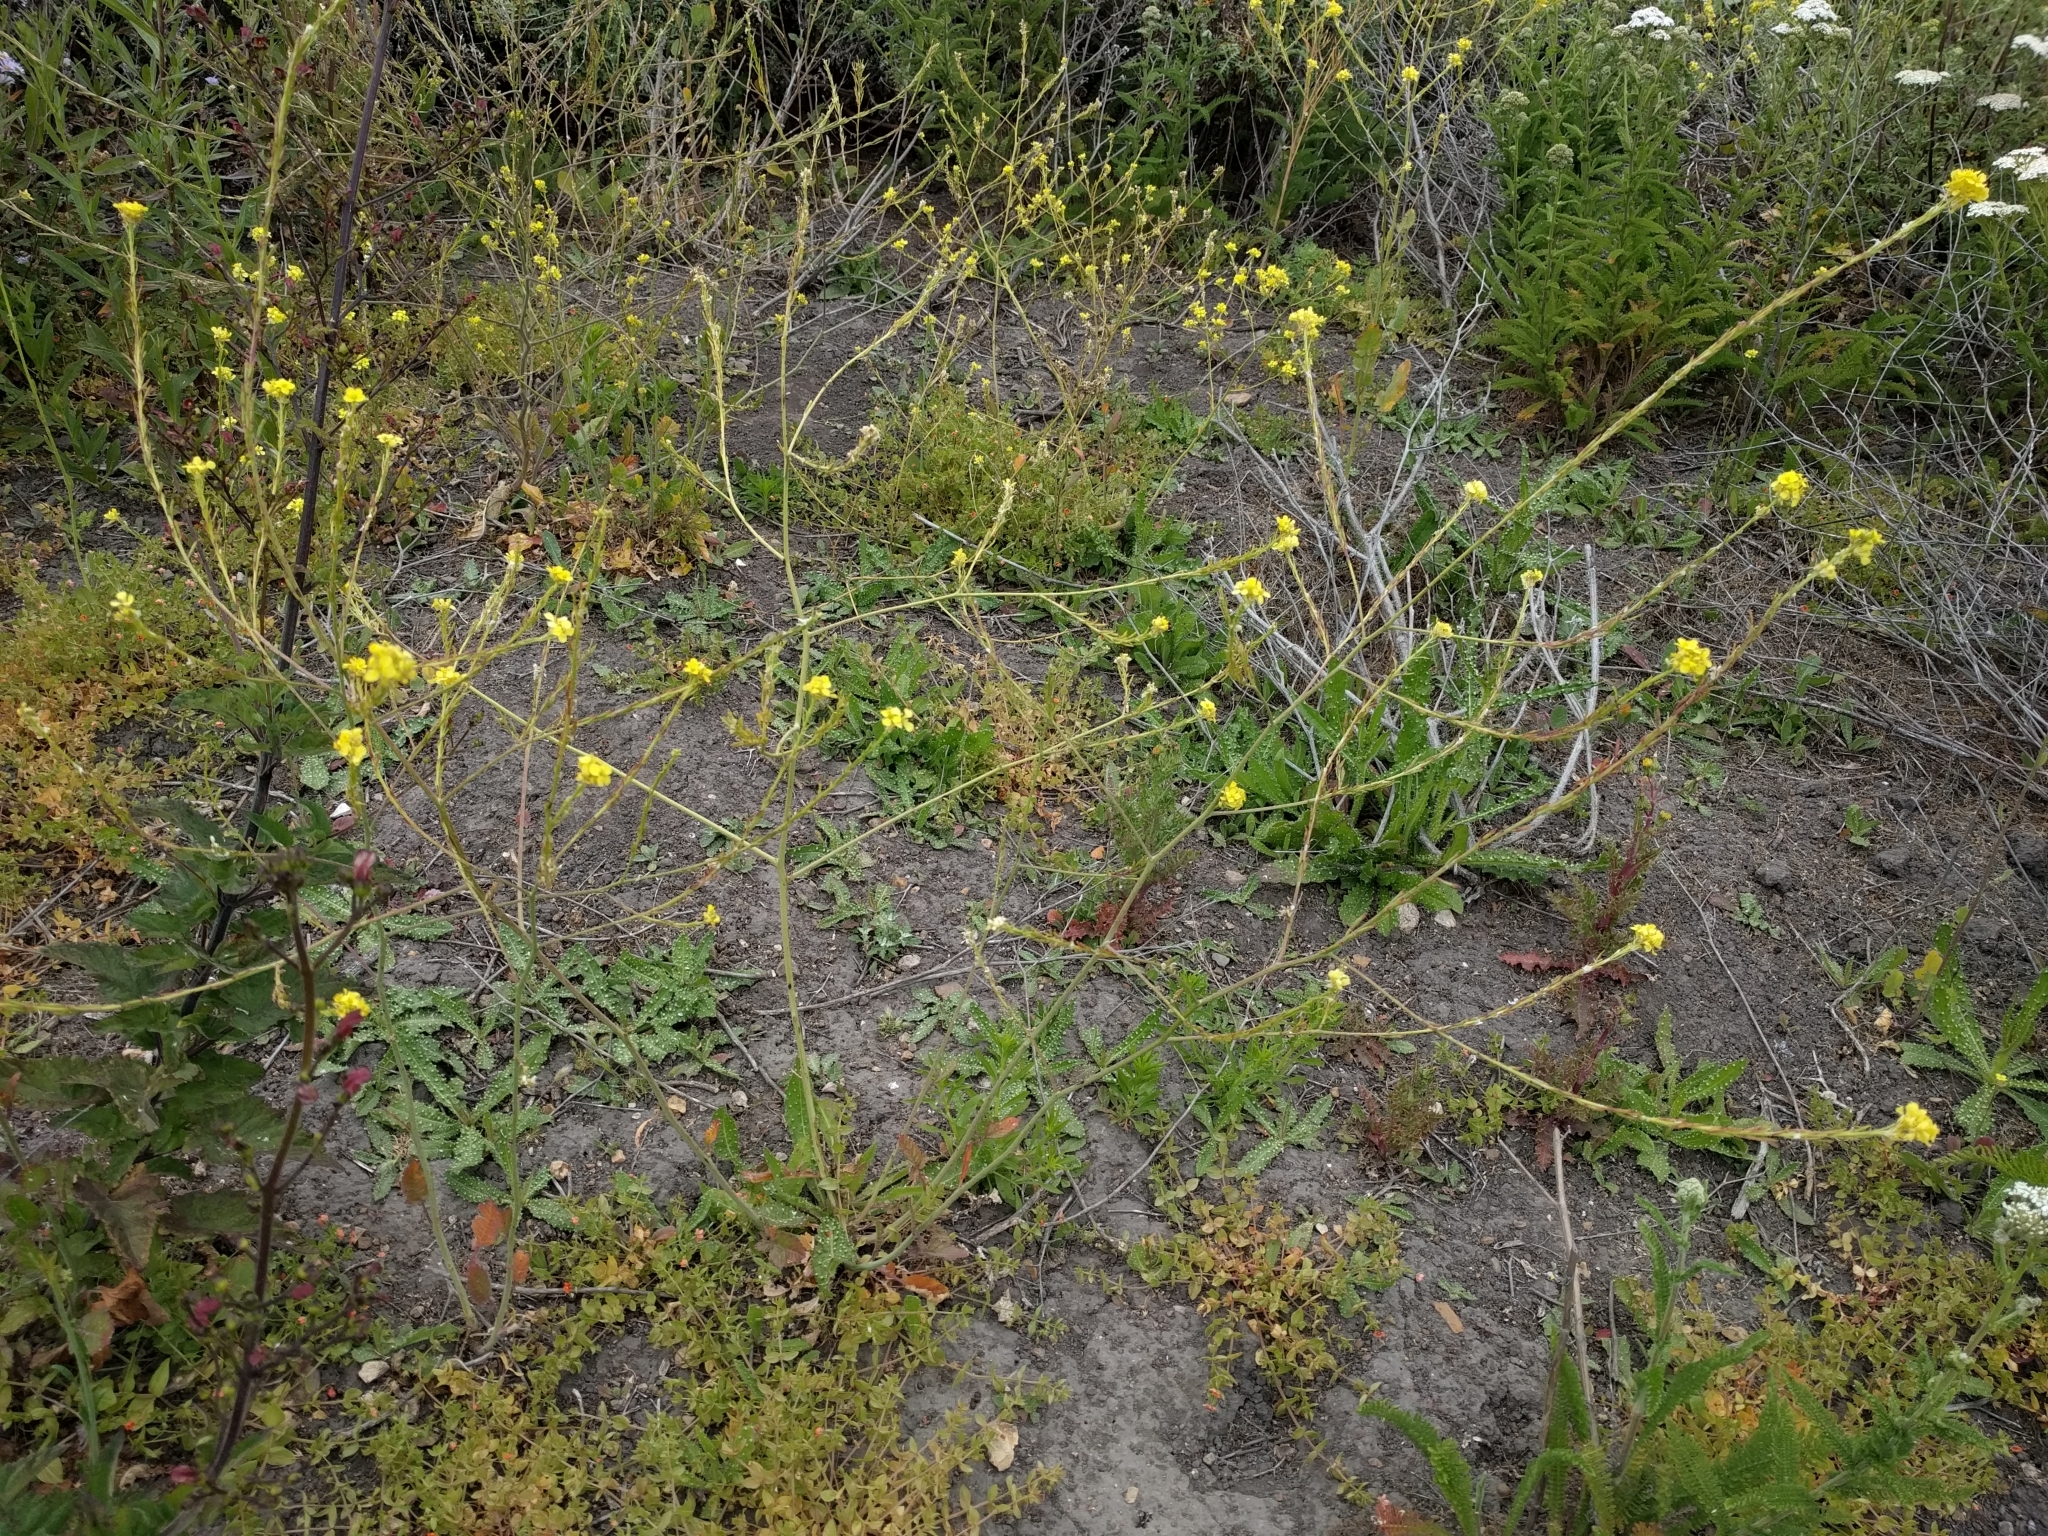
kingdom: Plantae
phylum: Tracheophyta
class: Magnoliopsida
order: Brassicales
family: Brassicaceae
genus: Hirschfeldia
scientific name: Hirschfeldia incana
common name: Hoary mustard
